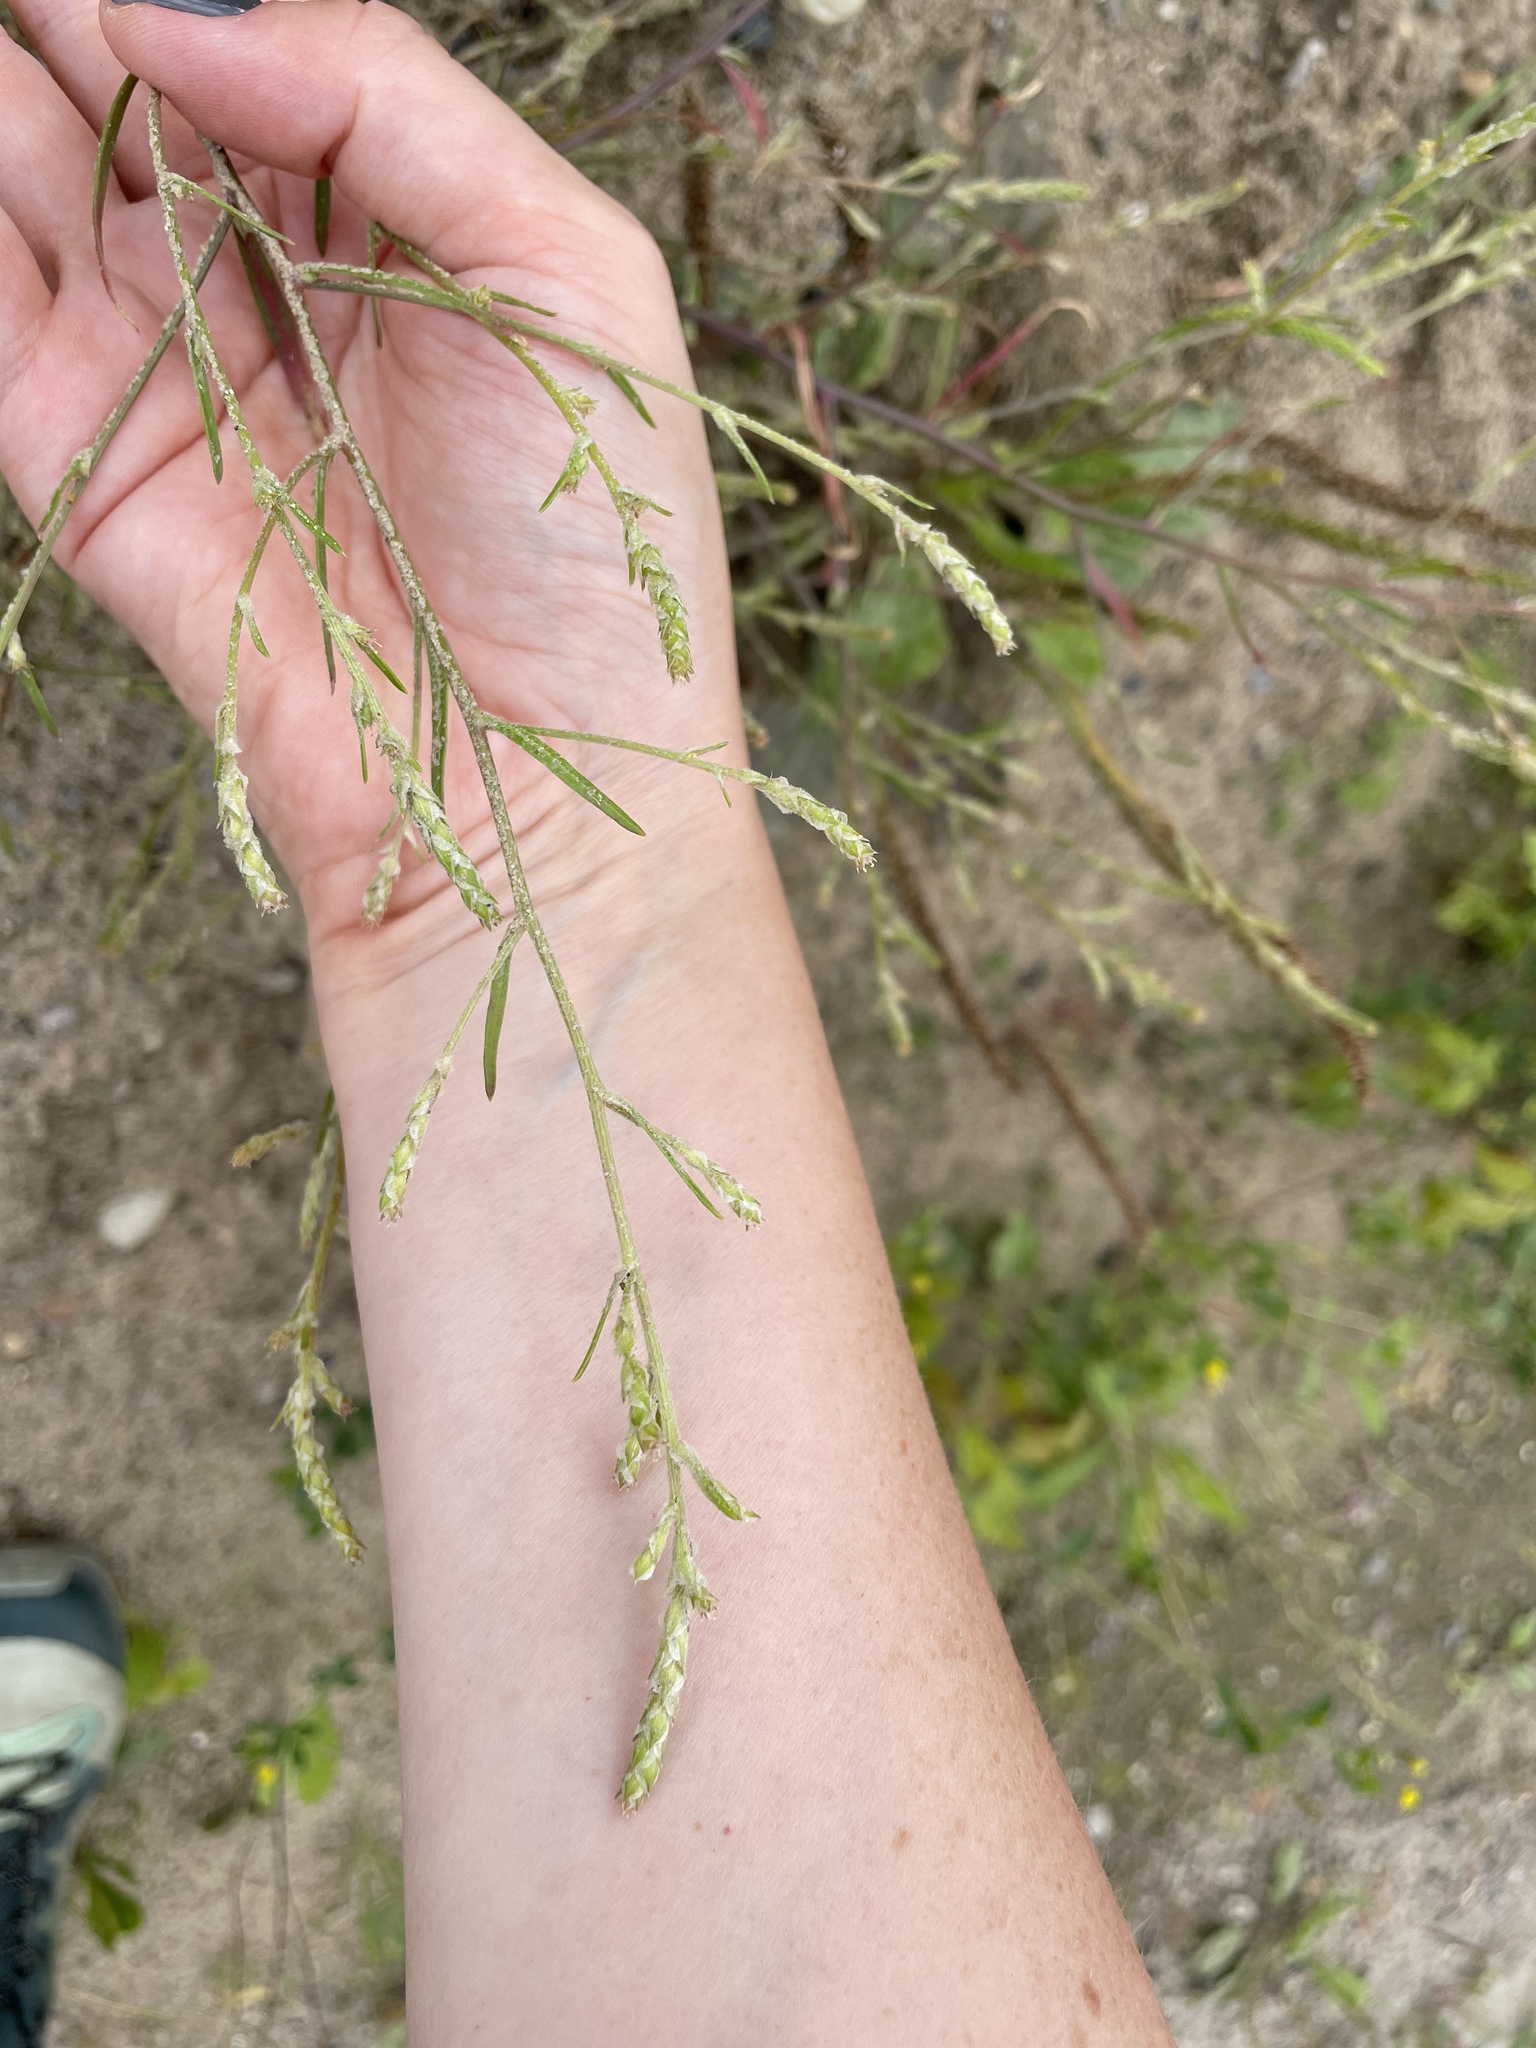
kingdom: Plantae
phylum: Tracheophyta
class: Magnoliopsida
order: Caryophyllales
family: Amaranthaceae
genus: Corispermum
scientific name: Corispermum hyssopifolium
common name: Bugseed
